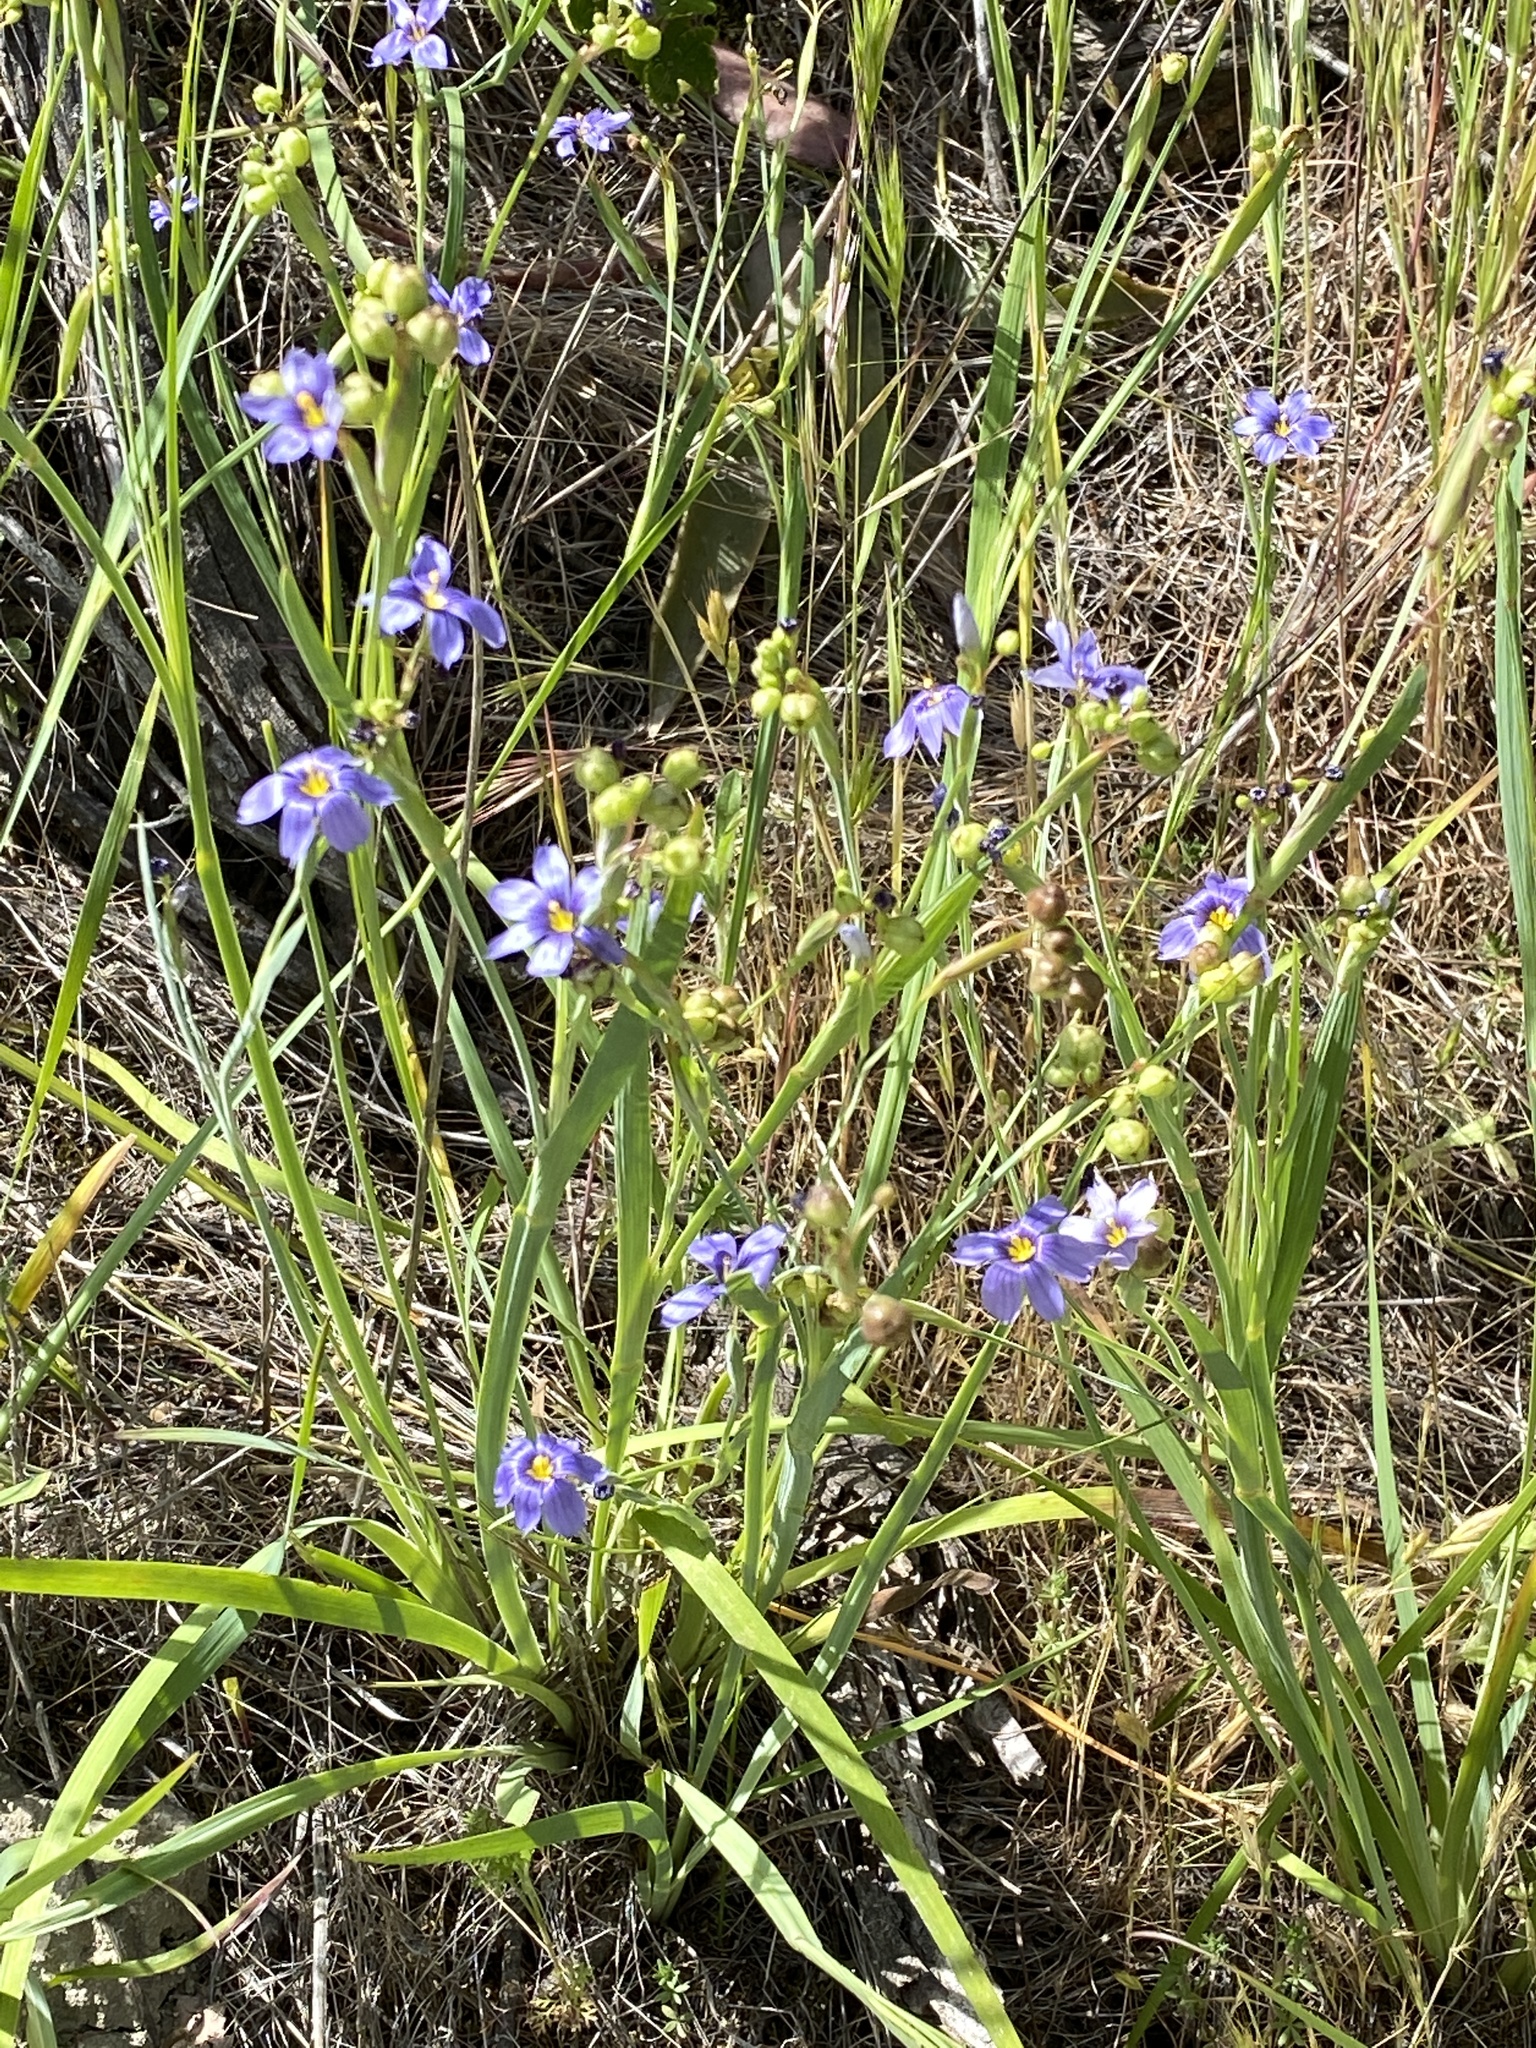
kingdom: Plantae
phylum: Tracheophyta
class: Liliopsida
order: Asparagales
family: Iridaceae
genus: Sisyrinchium
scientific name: Sisyrinchium bellum
